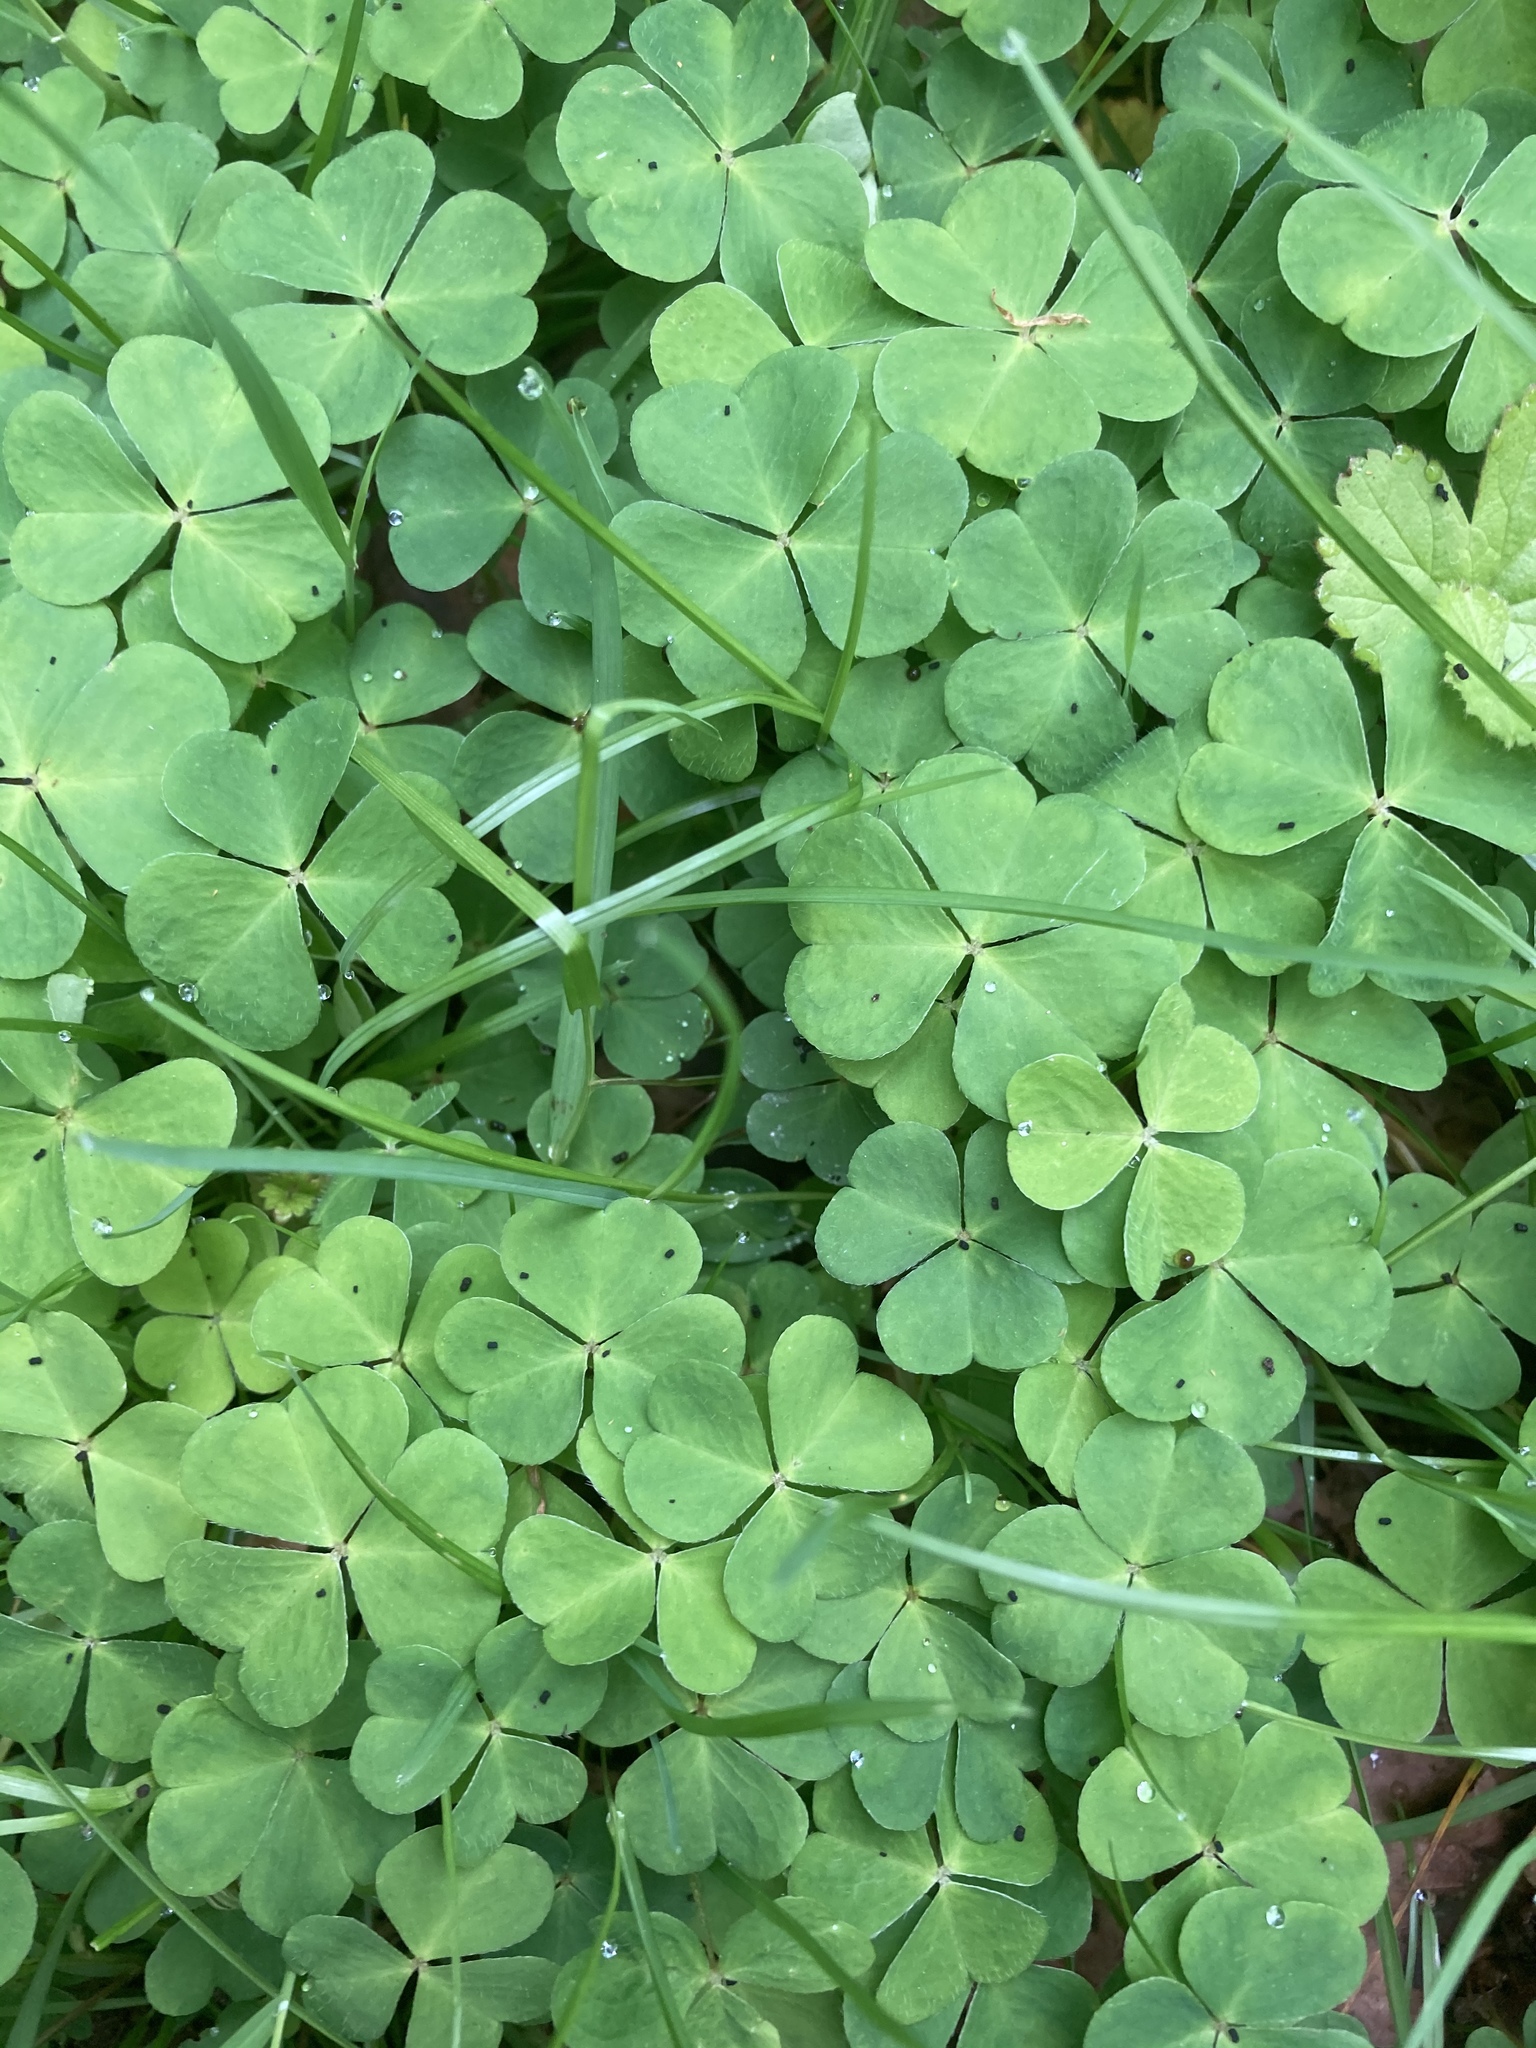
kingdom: Plantae
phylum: Tracheophyta
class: Magnoliopsida
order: Oxalidales
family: Oxalidaceae
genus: Oxalis
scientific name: Oxalis acetosella
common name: Wood-sorrel
